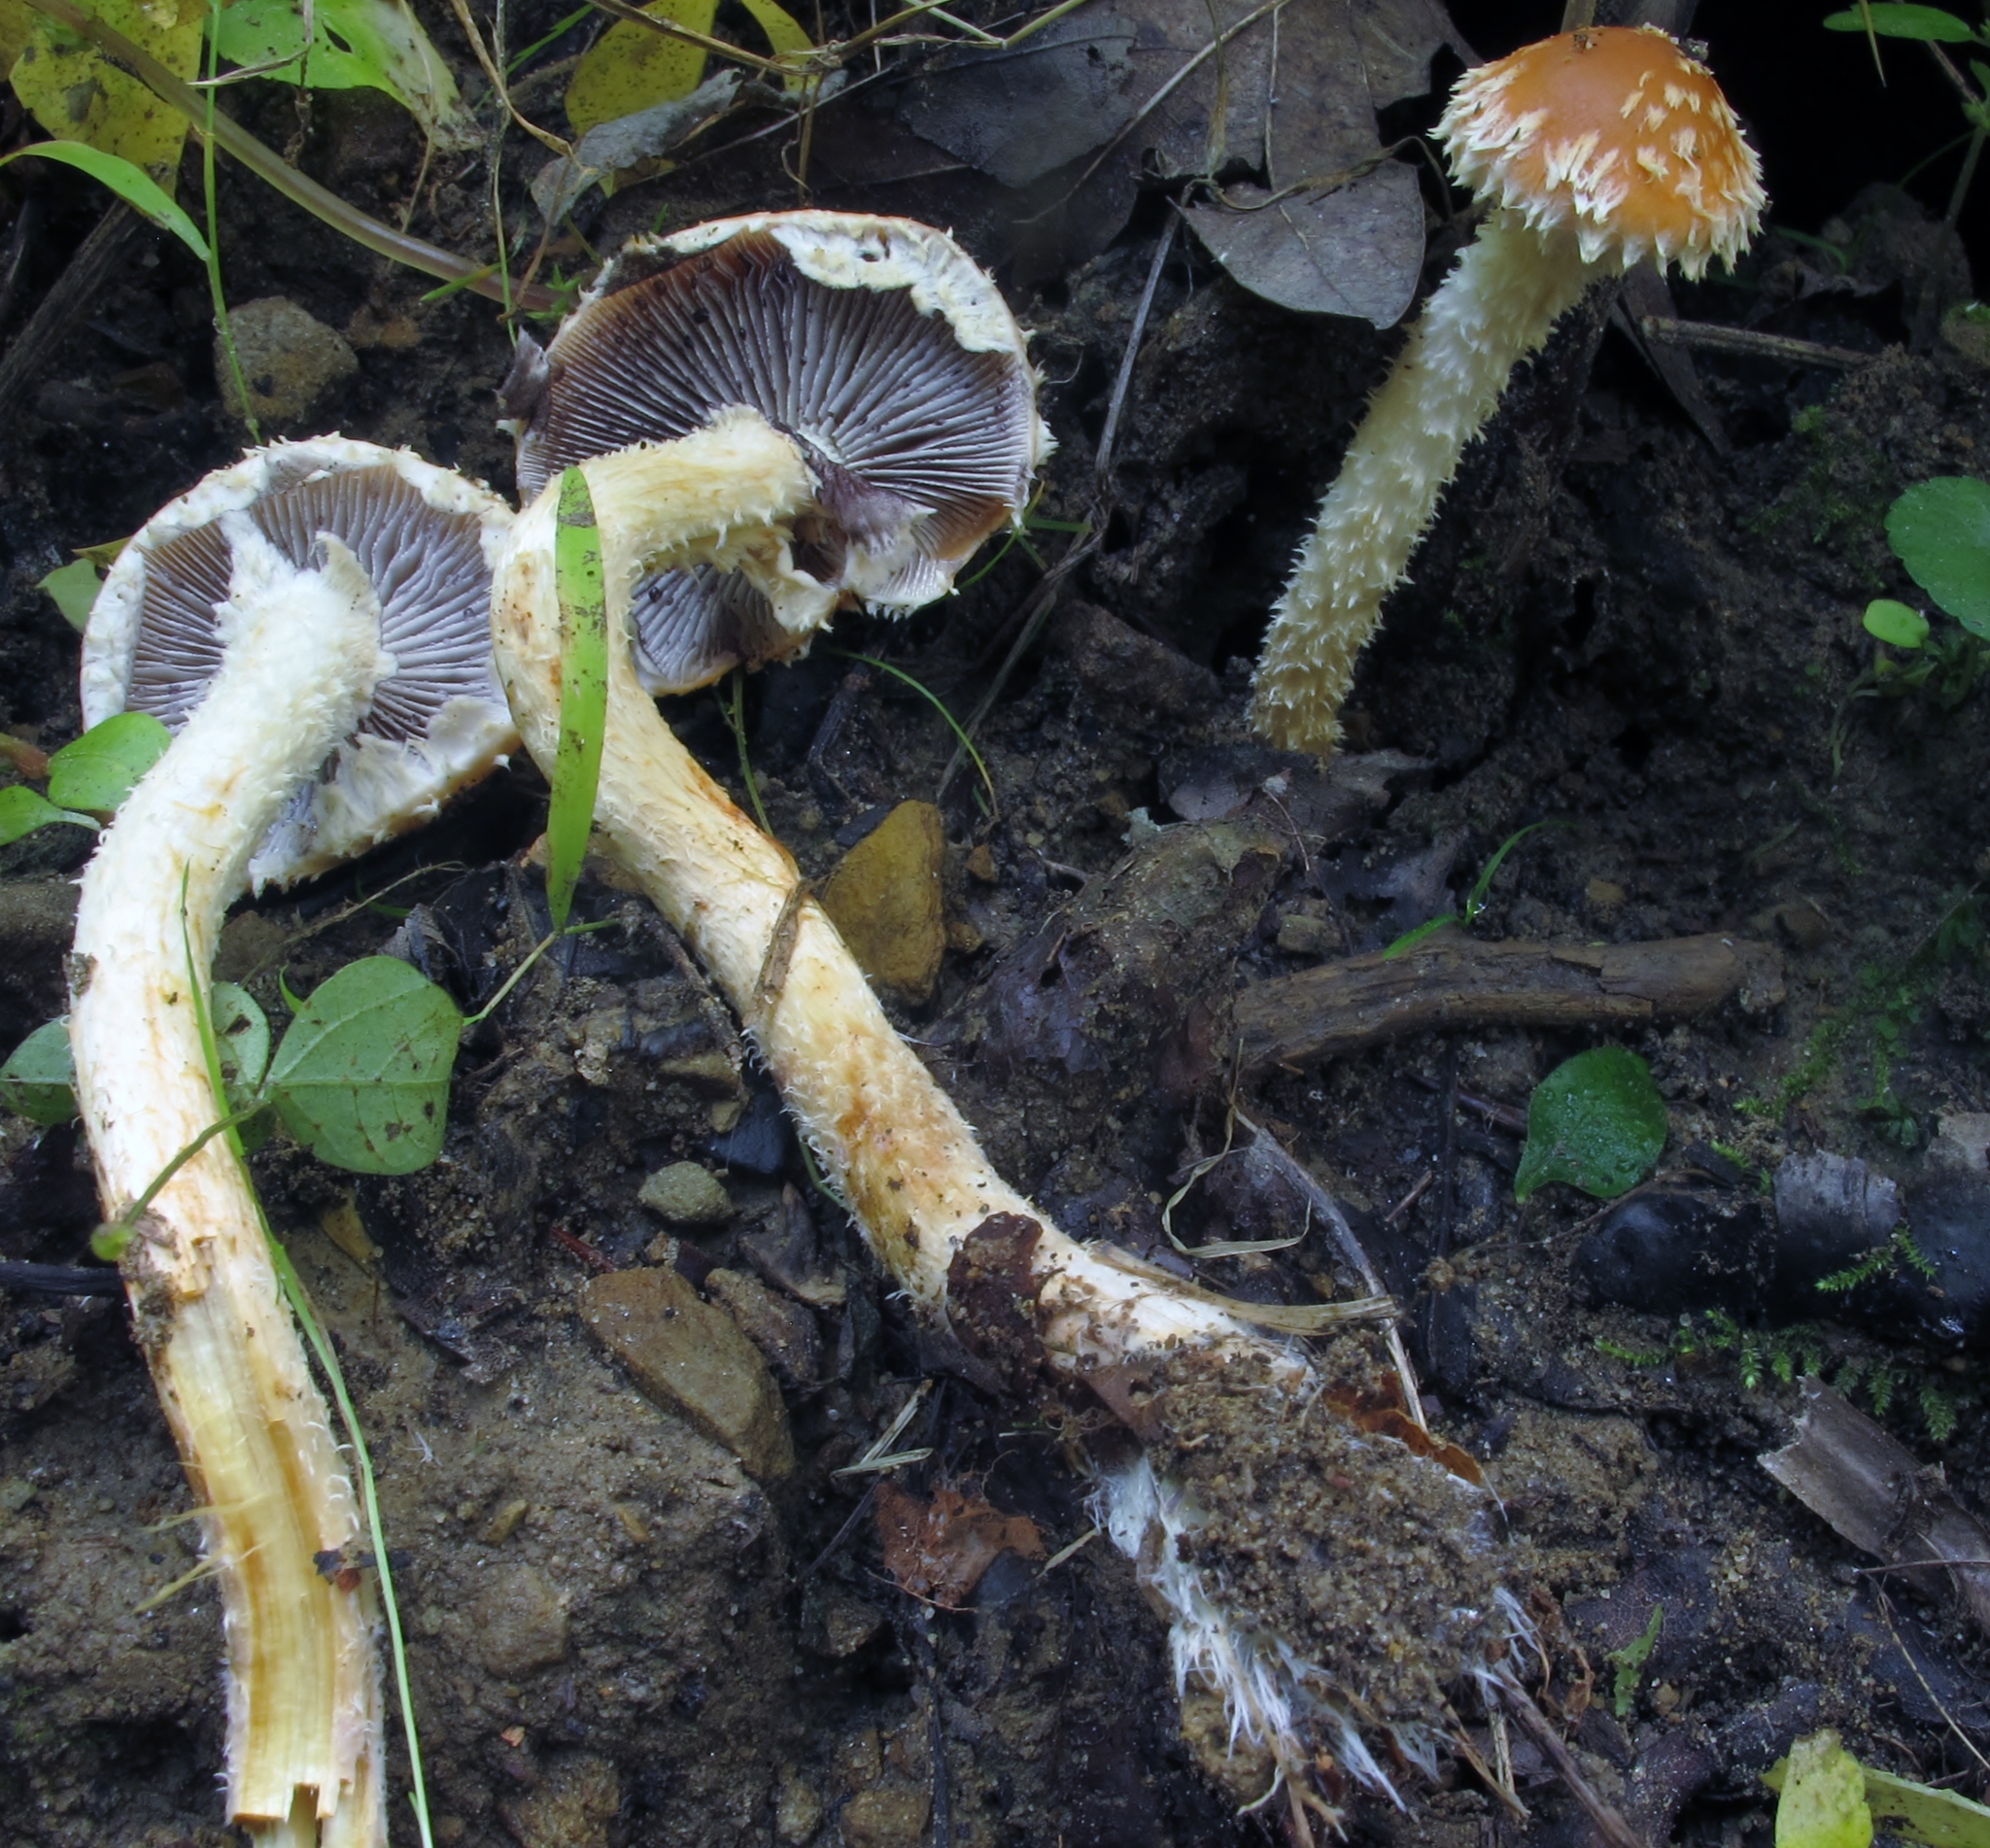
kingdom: Fungi
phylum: Basidiomycota
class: Agaricomycetes
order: Agaricales
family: Strophariaceae
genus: Leratiomyces
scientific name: Leratiomyces squamosus
